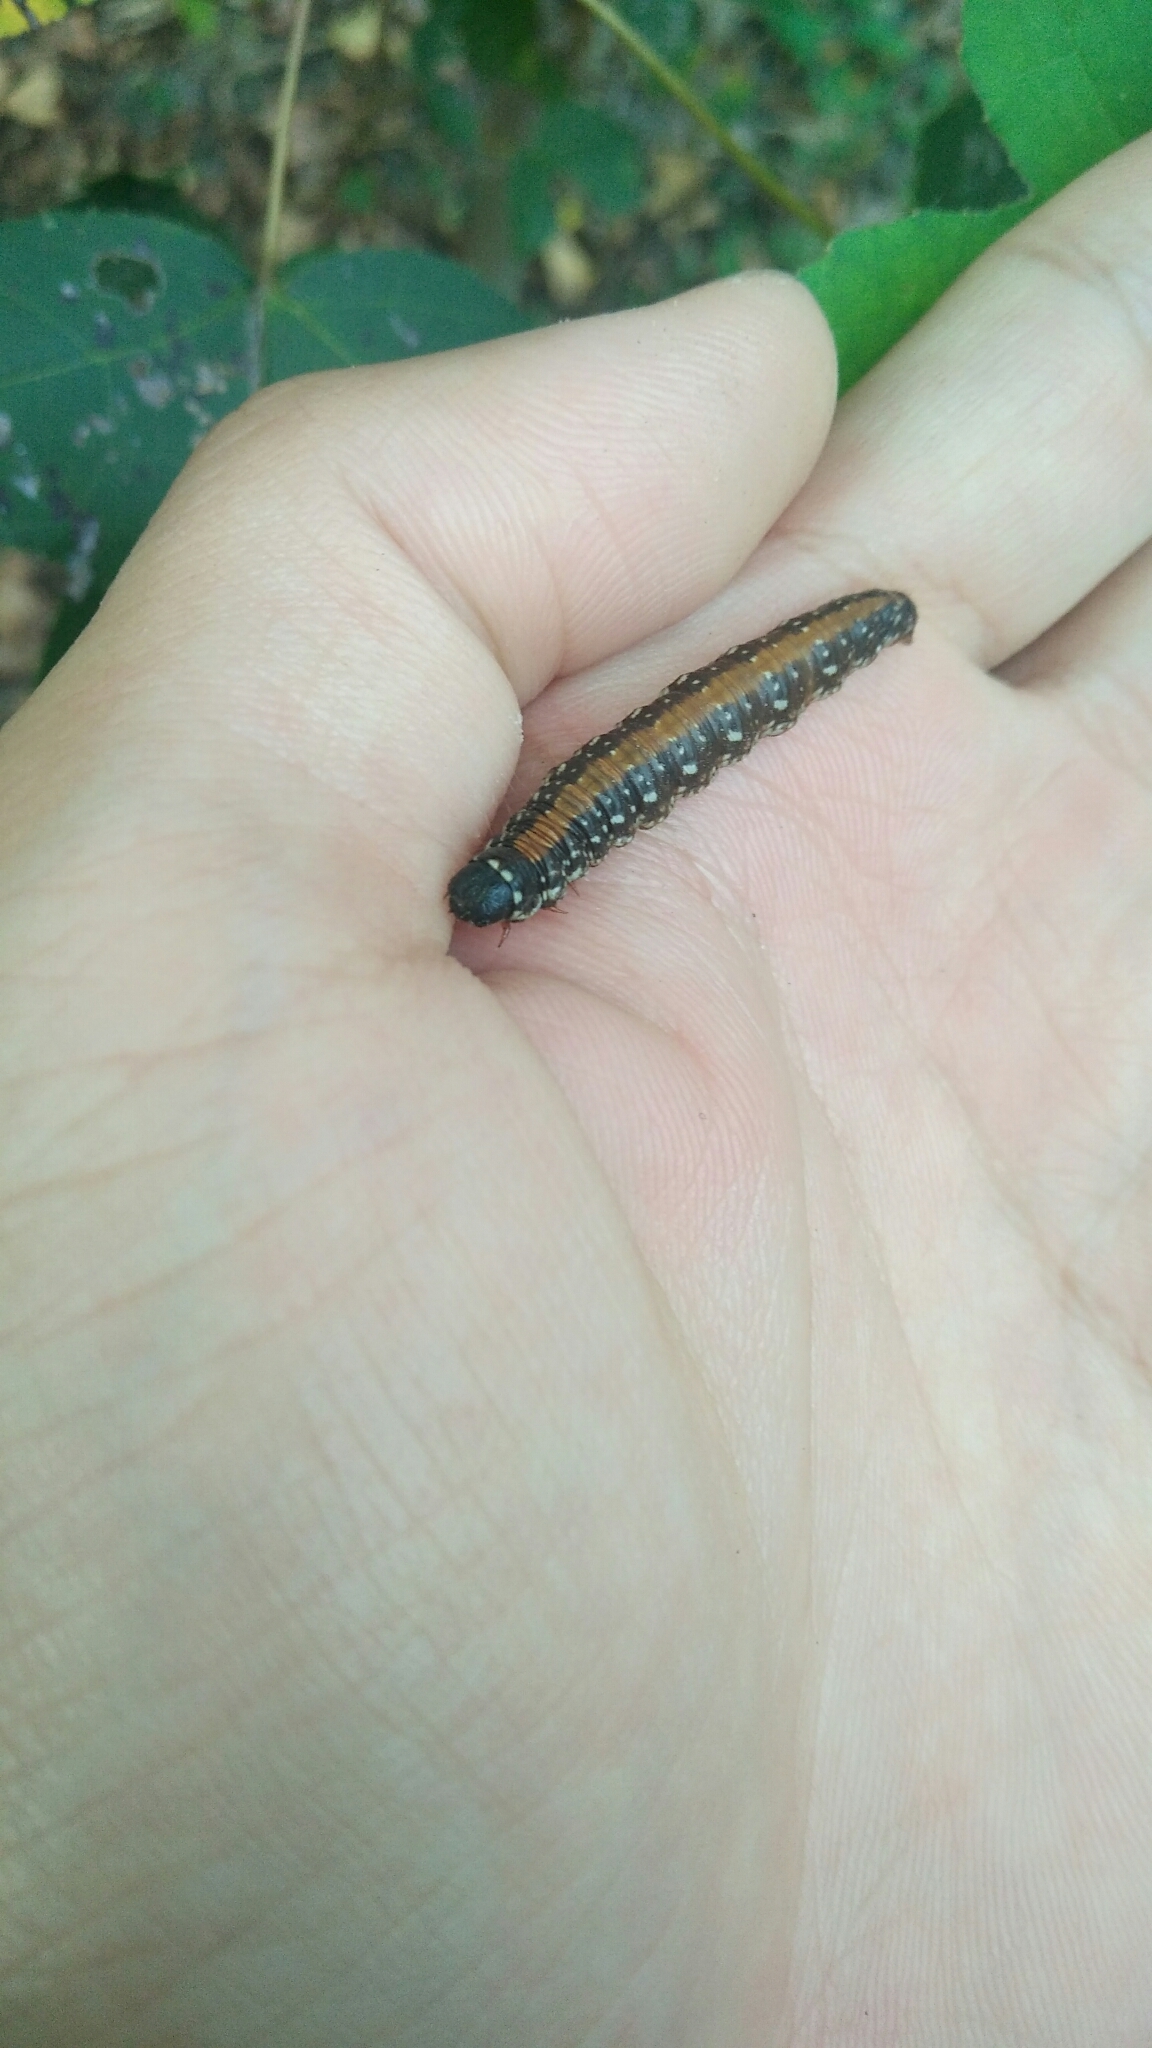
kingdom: Animalia
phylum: Arthropoda
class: Insecta
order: Lepidoptera
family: Pyralidae
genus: Locastra
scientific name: Locastra muscosalis
